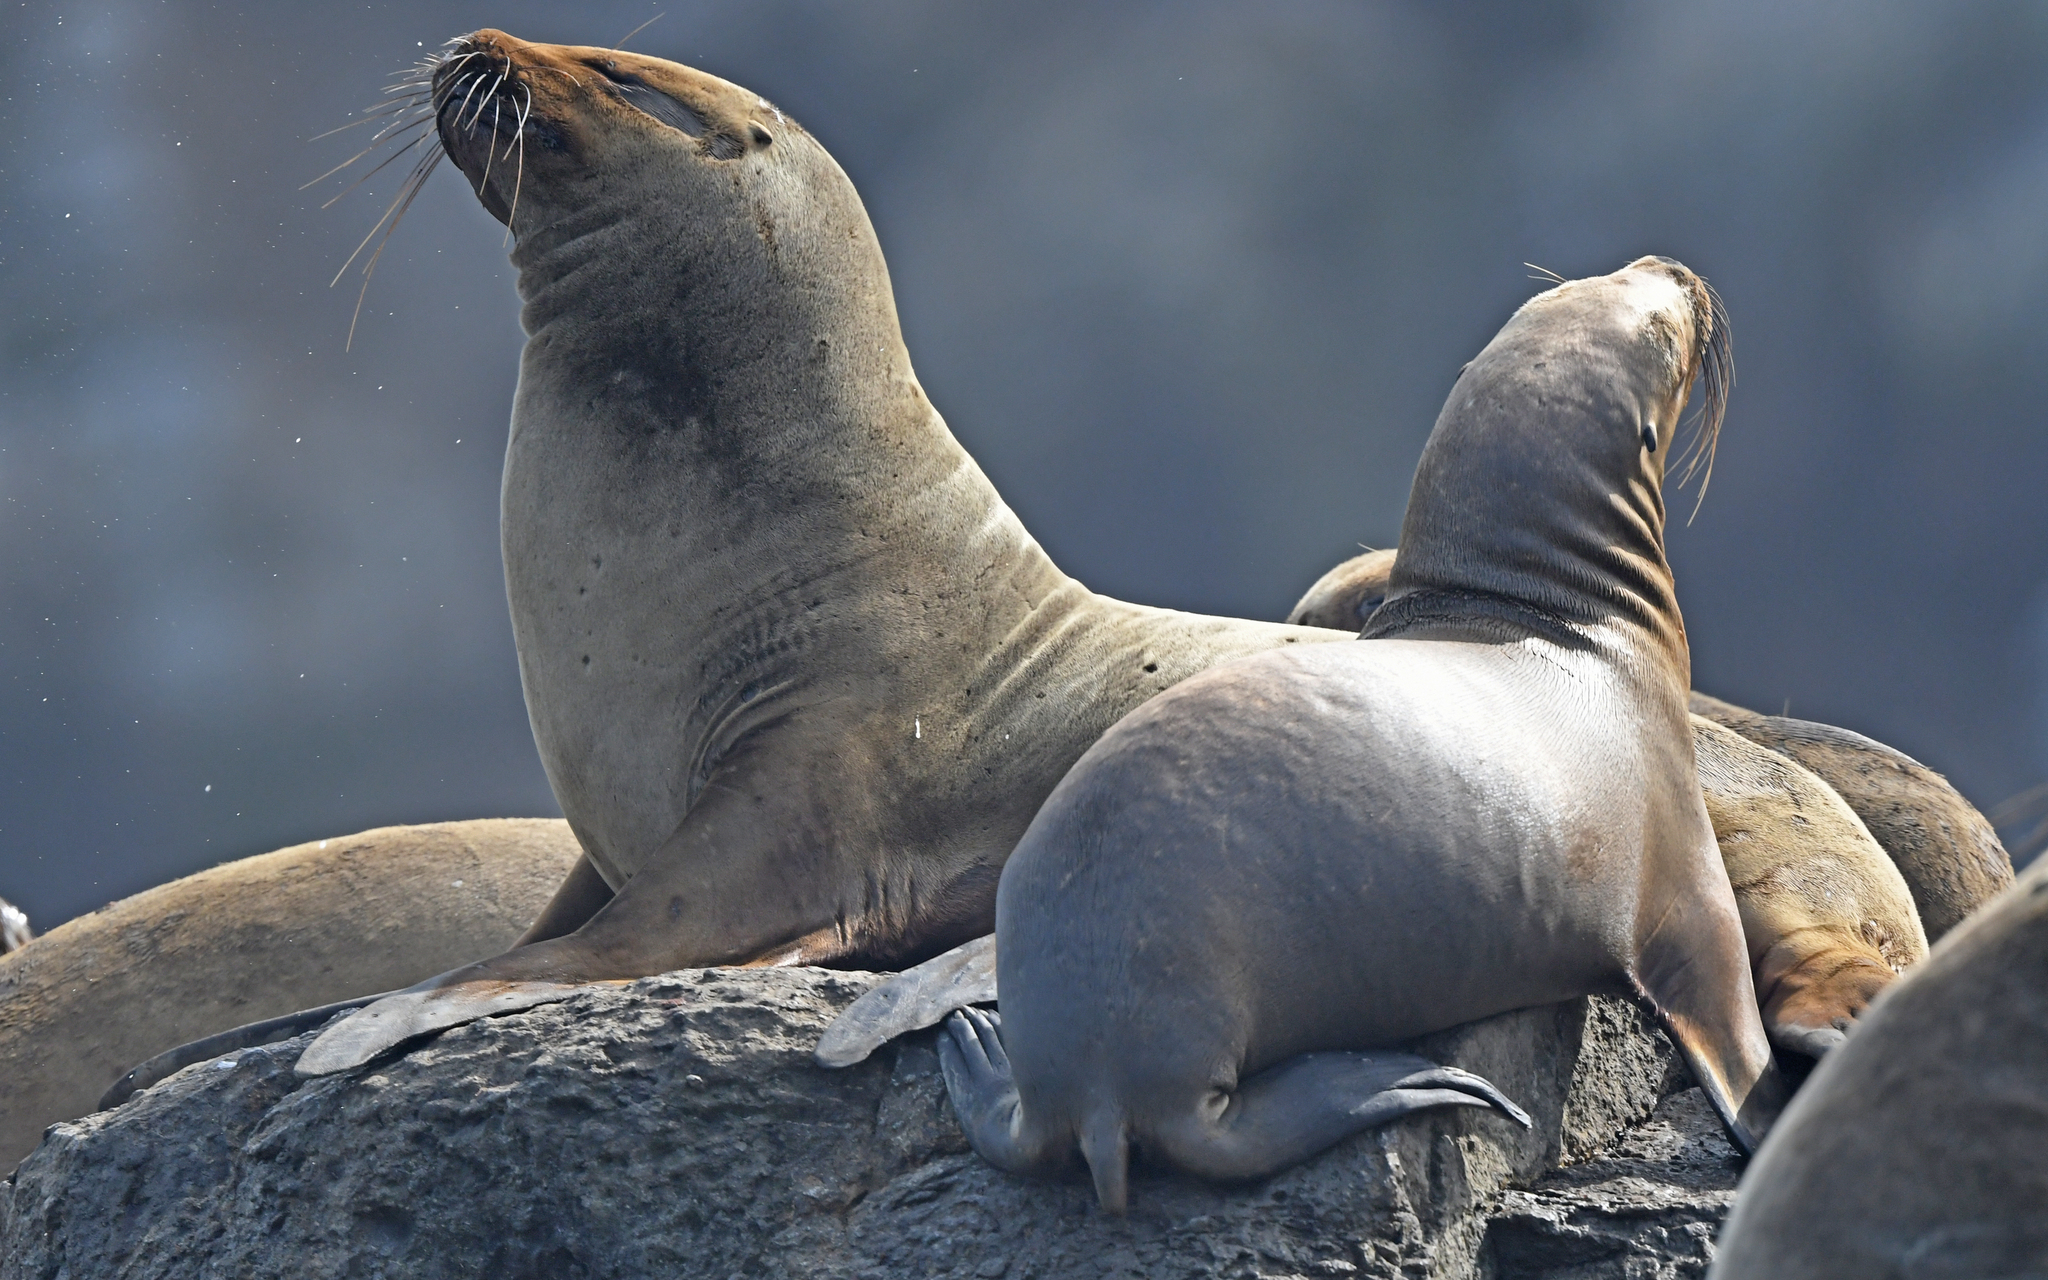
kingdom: Animalia
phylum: Chordata
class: Mammalia
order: Carnivora
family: Otariidae
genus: Otaria
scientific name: Otaria byronia
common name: South american sea lion
